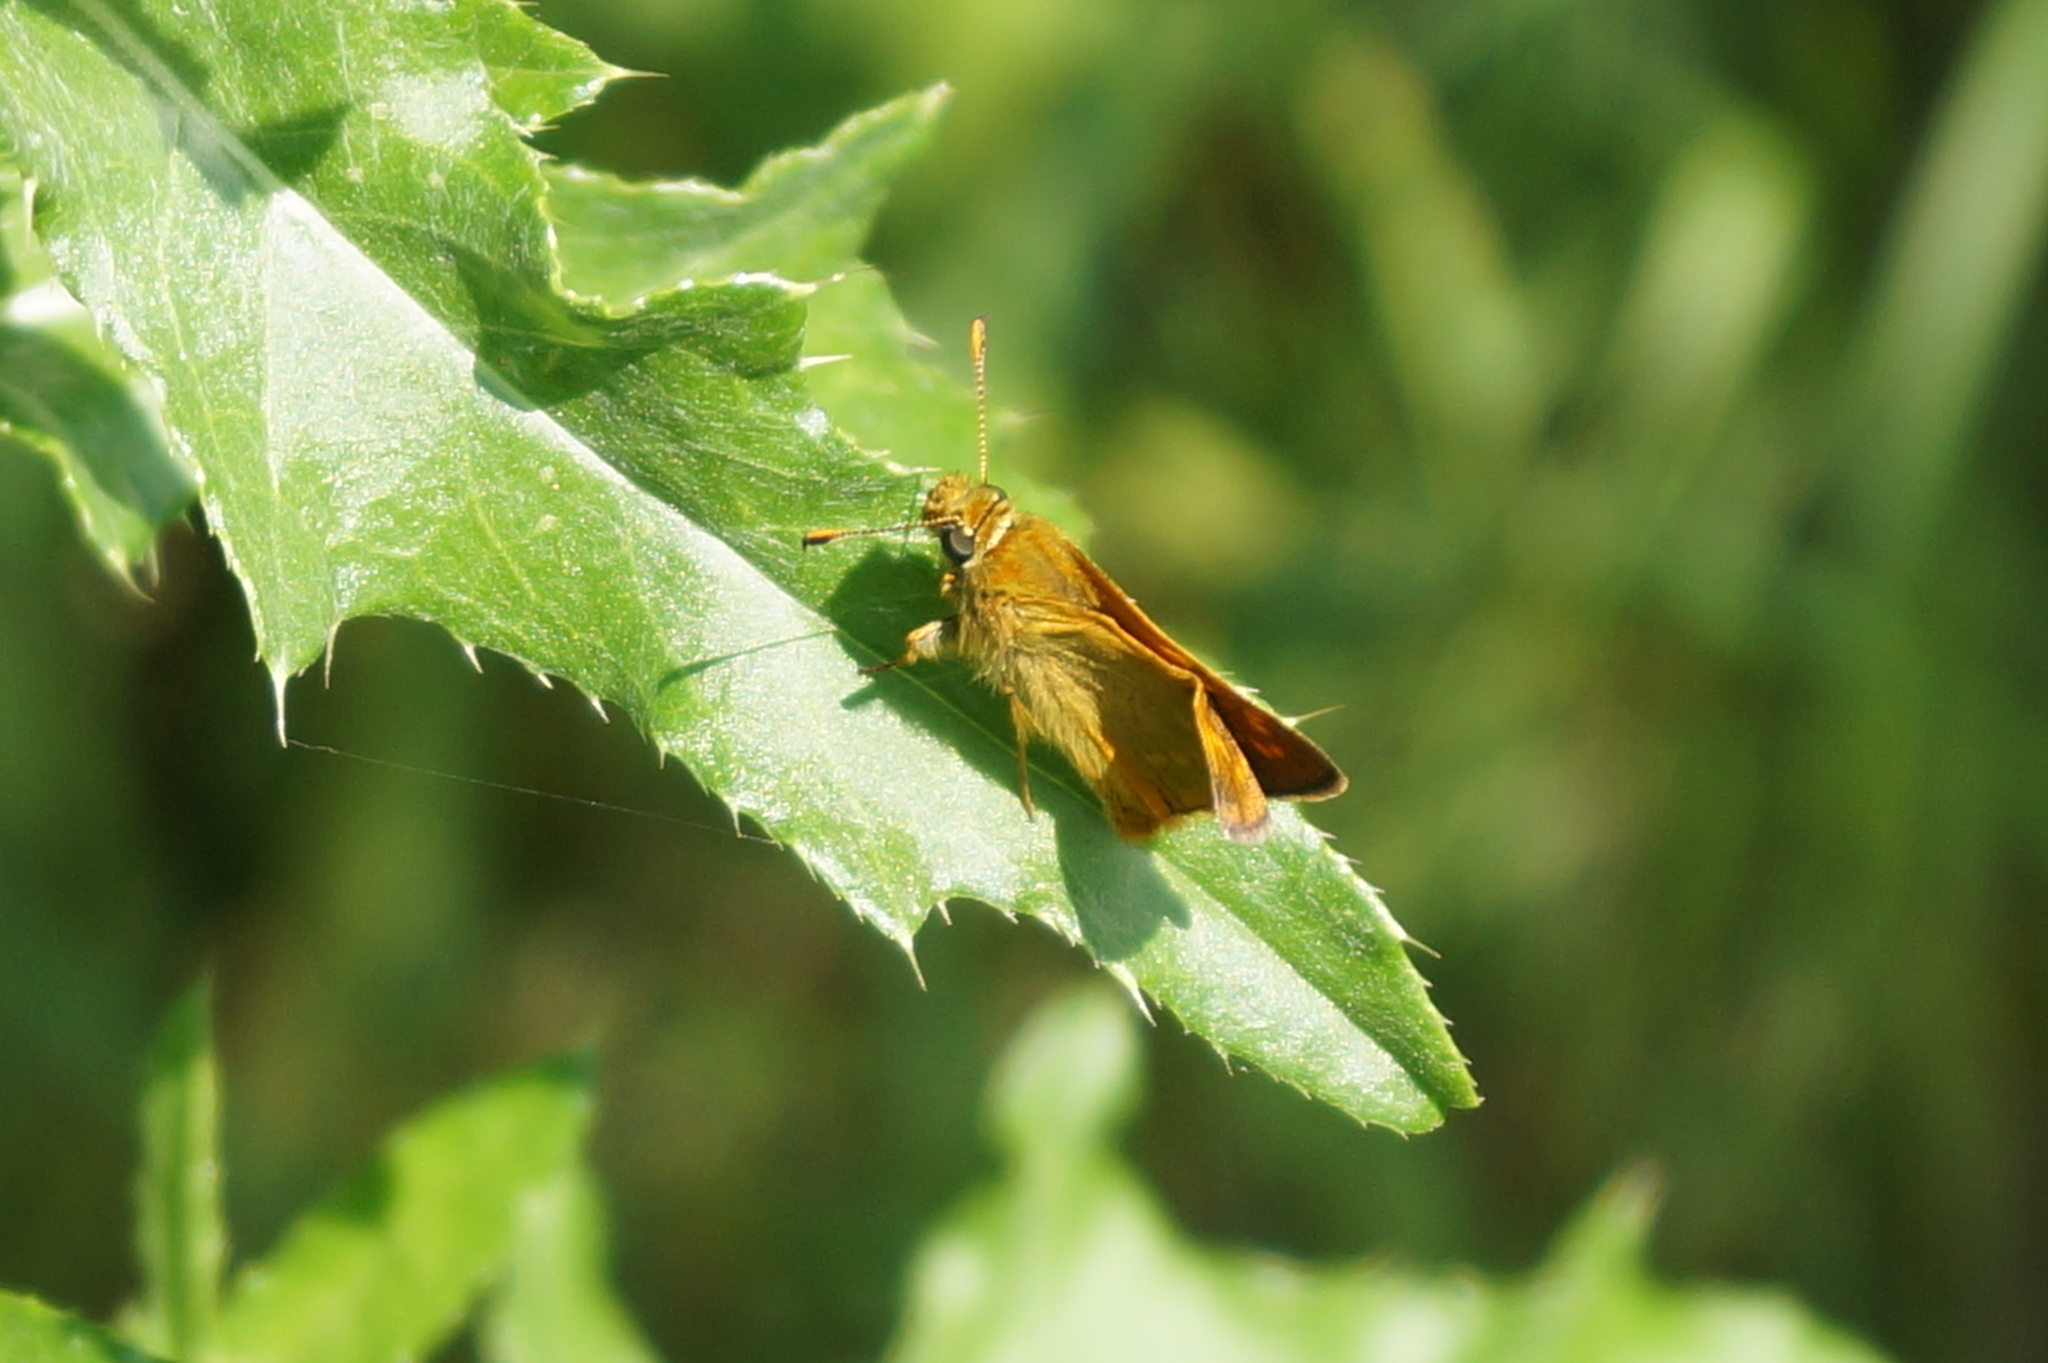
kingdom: Animalia
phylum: Arthropoda
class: Insecta
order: Lepidoptera
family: Hesperiidae
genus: Ochlodes
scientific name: Ochlodes venata
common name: Large skipper
